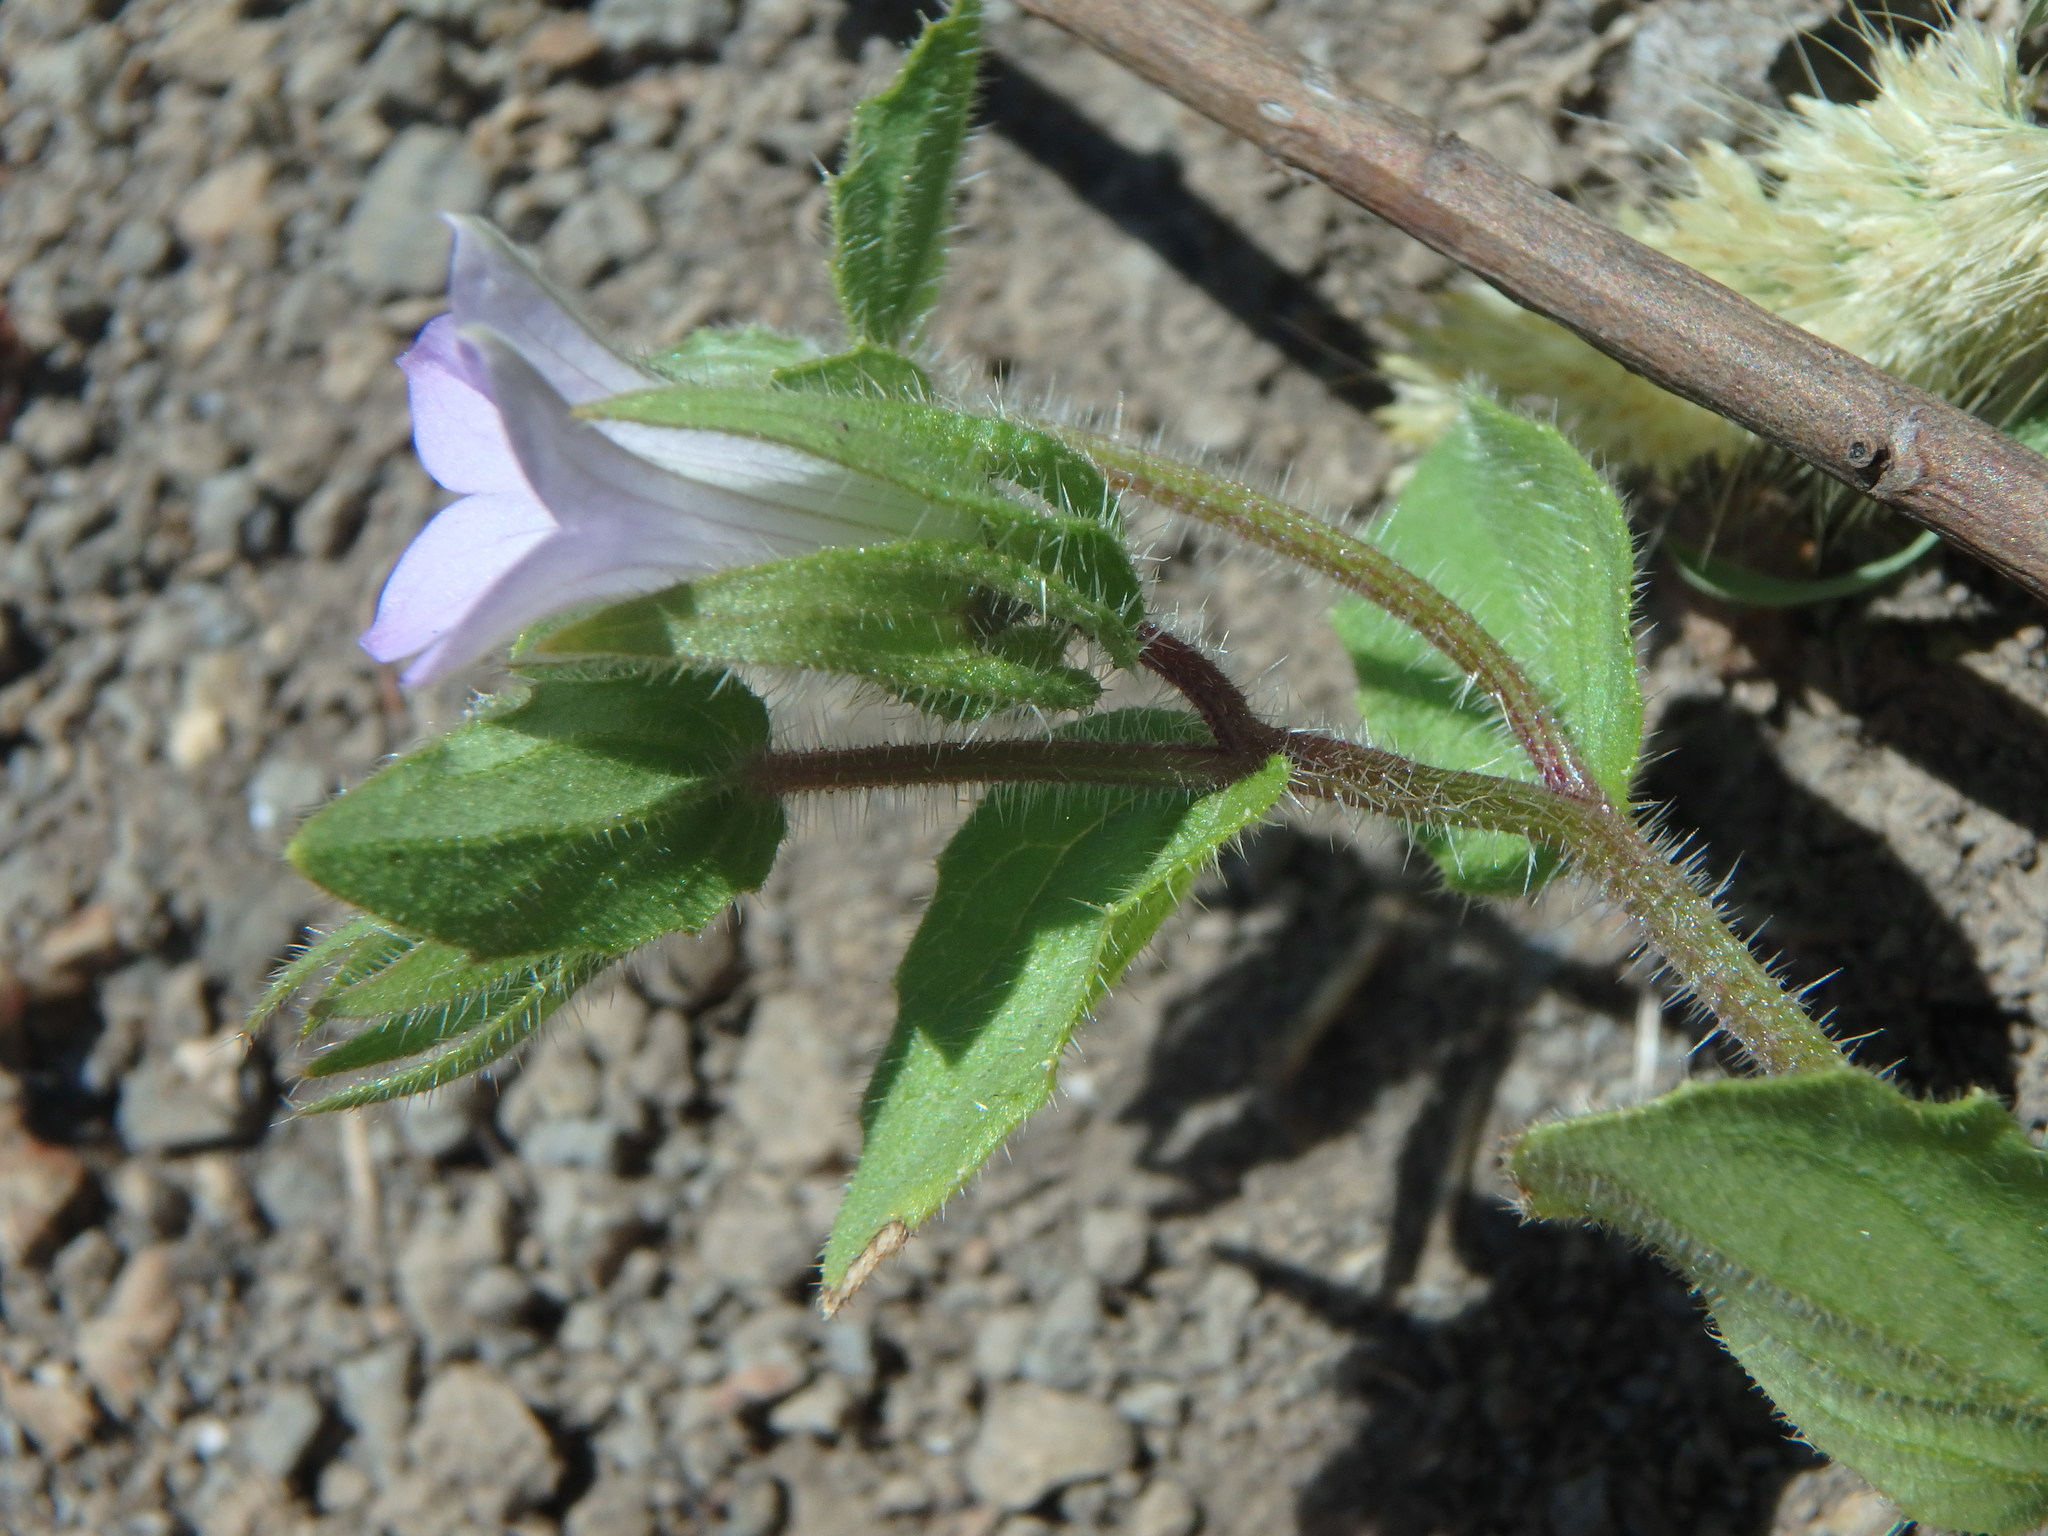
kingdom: Plantae
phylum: Tracheophyta
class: Magnoliopsida
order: Asterales
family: Campanulaceae
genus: Campanula
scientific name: Campanula erinus
